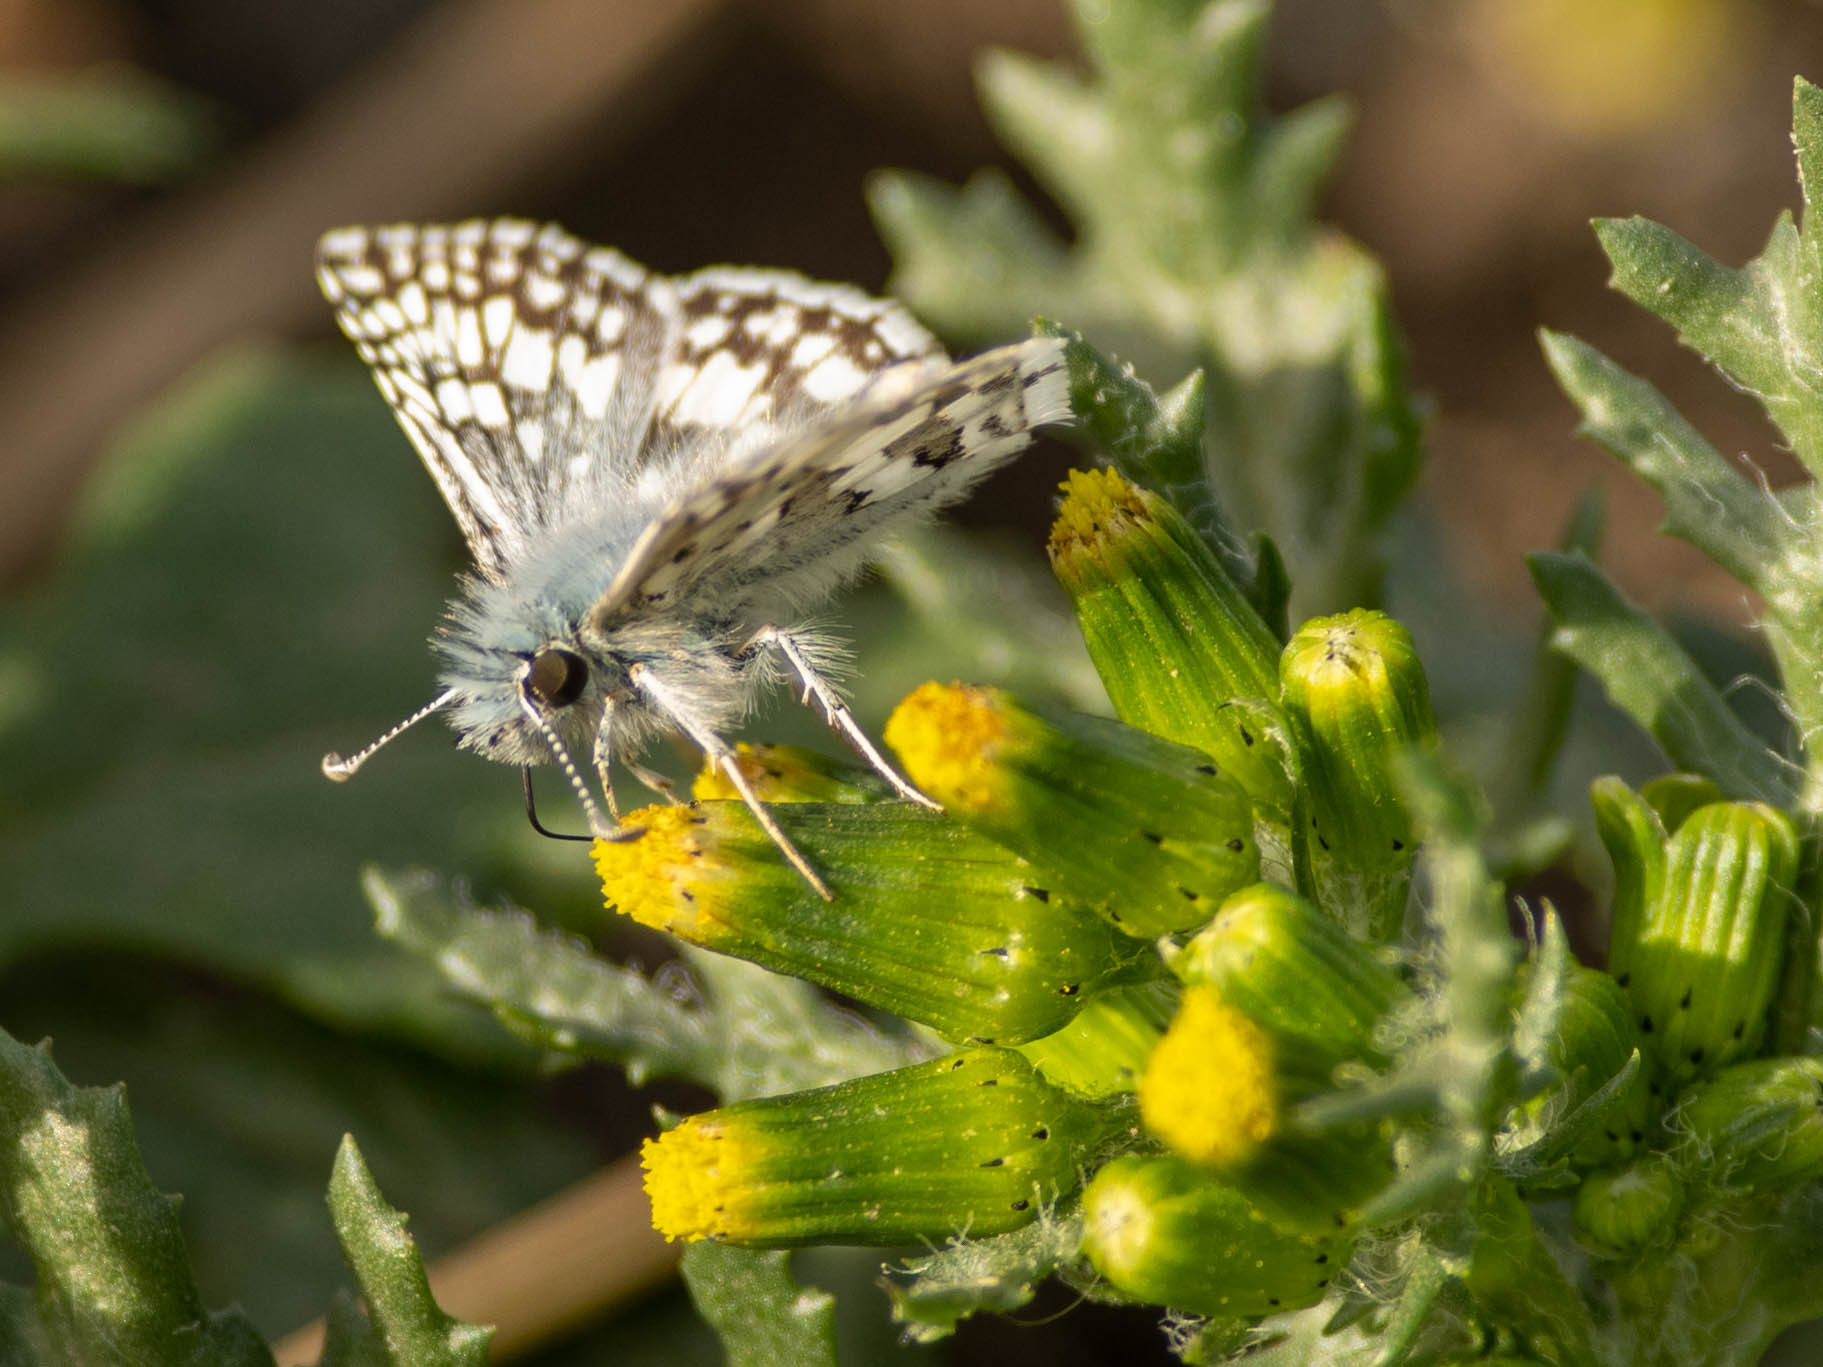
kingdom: Animalia
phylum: Arthropoda
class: Insecta
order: Lepidoptera
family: Hesperiidae
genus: Burnsius
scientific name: Burnsius communis
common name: Common checkered-skipper
